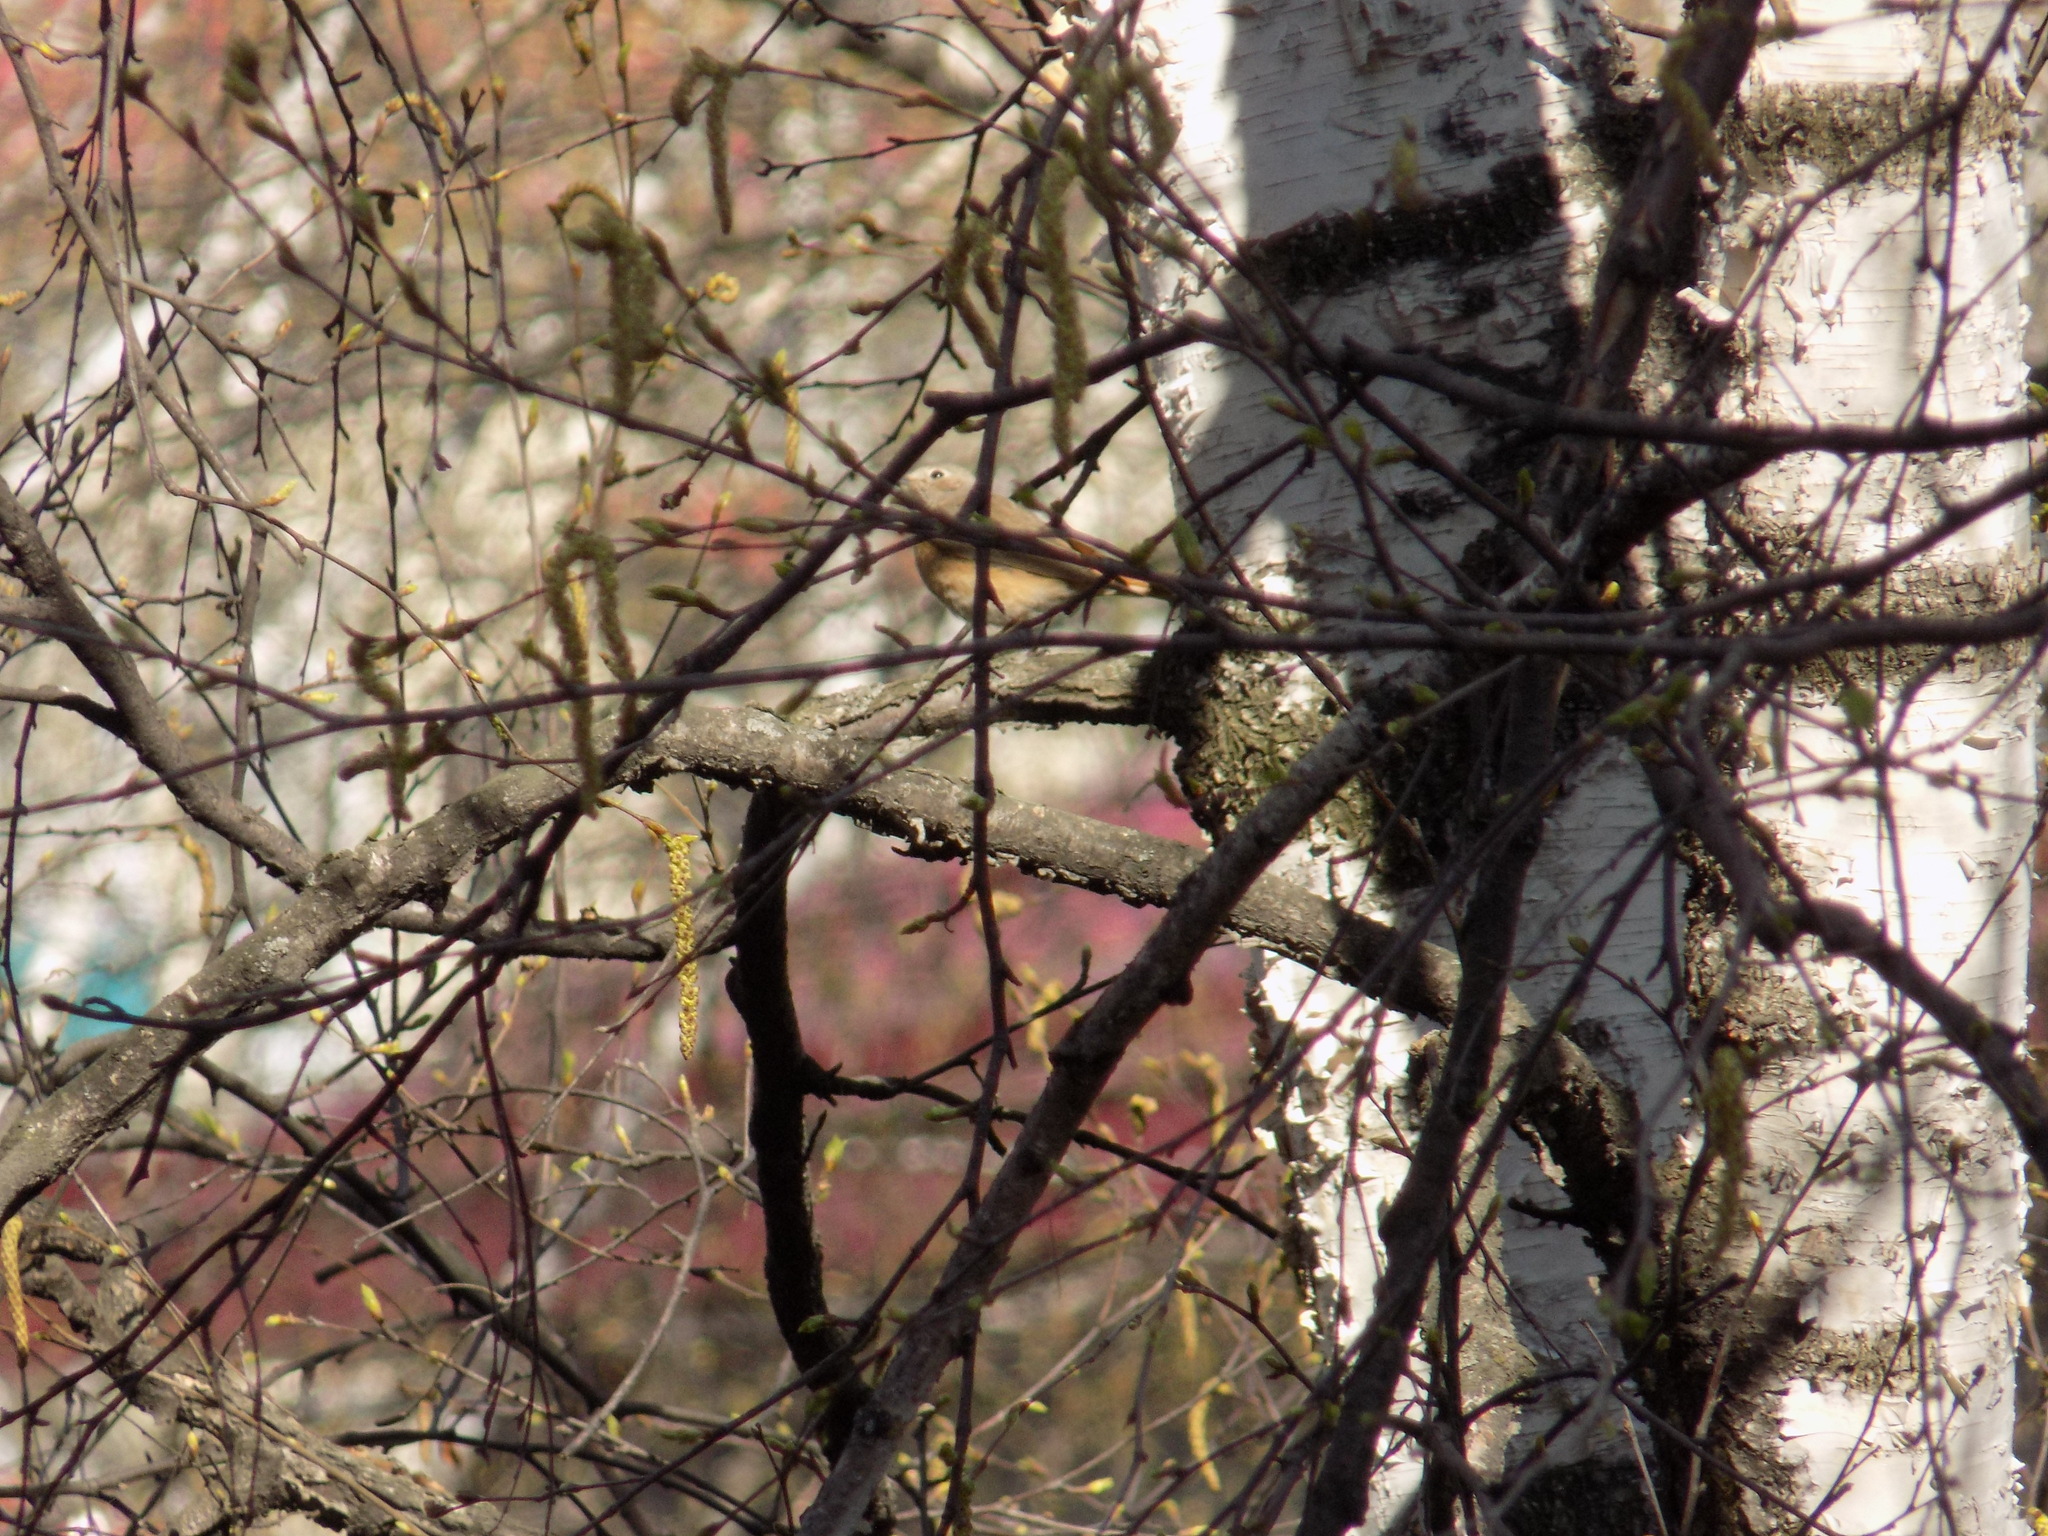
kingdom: Animalia
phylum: Chordata
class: Aves
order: Passeriformes
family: Muscicapidae
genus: Phoenicurus
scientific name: Phoenicurus phoenicurus
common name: Common redstart
